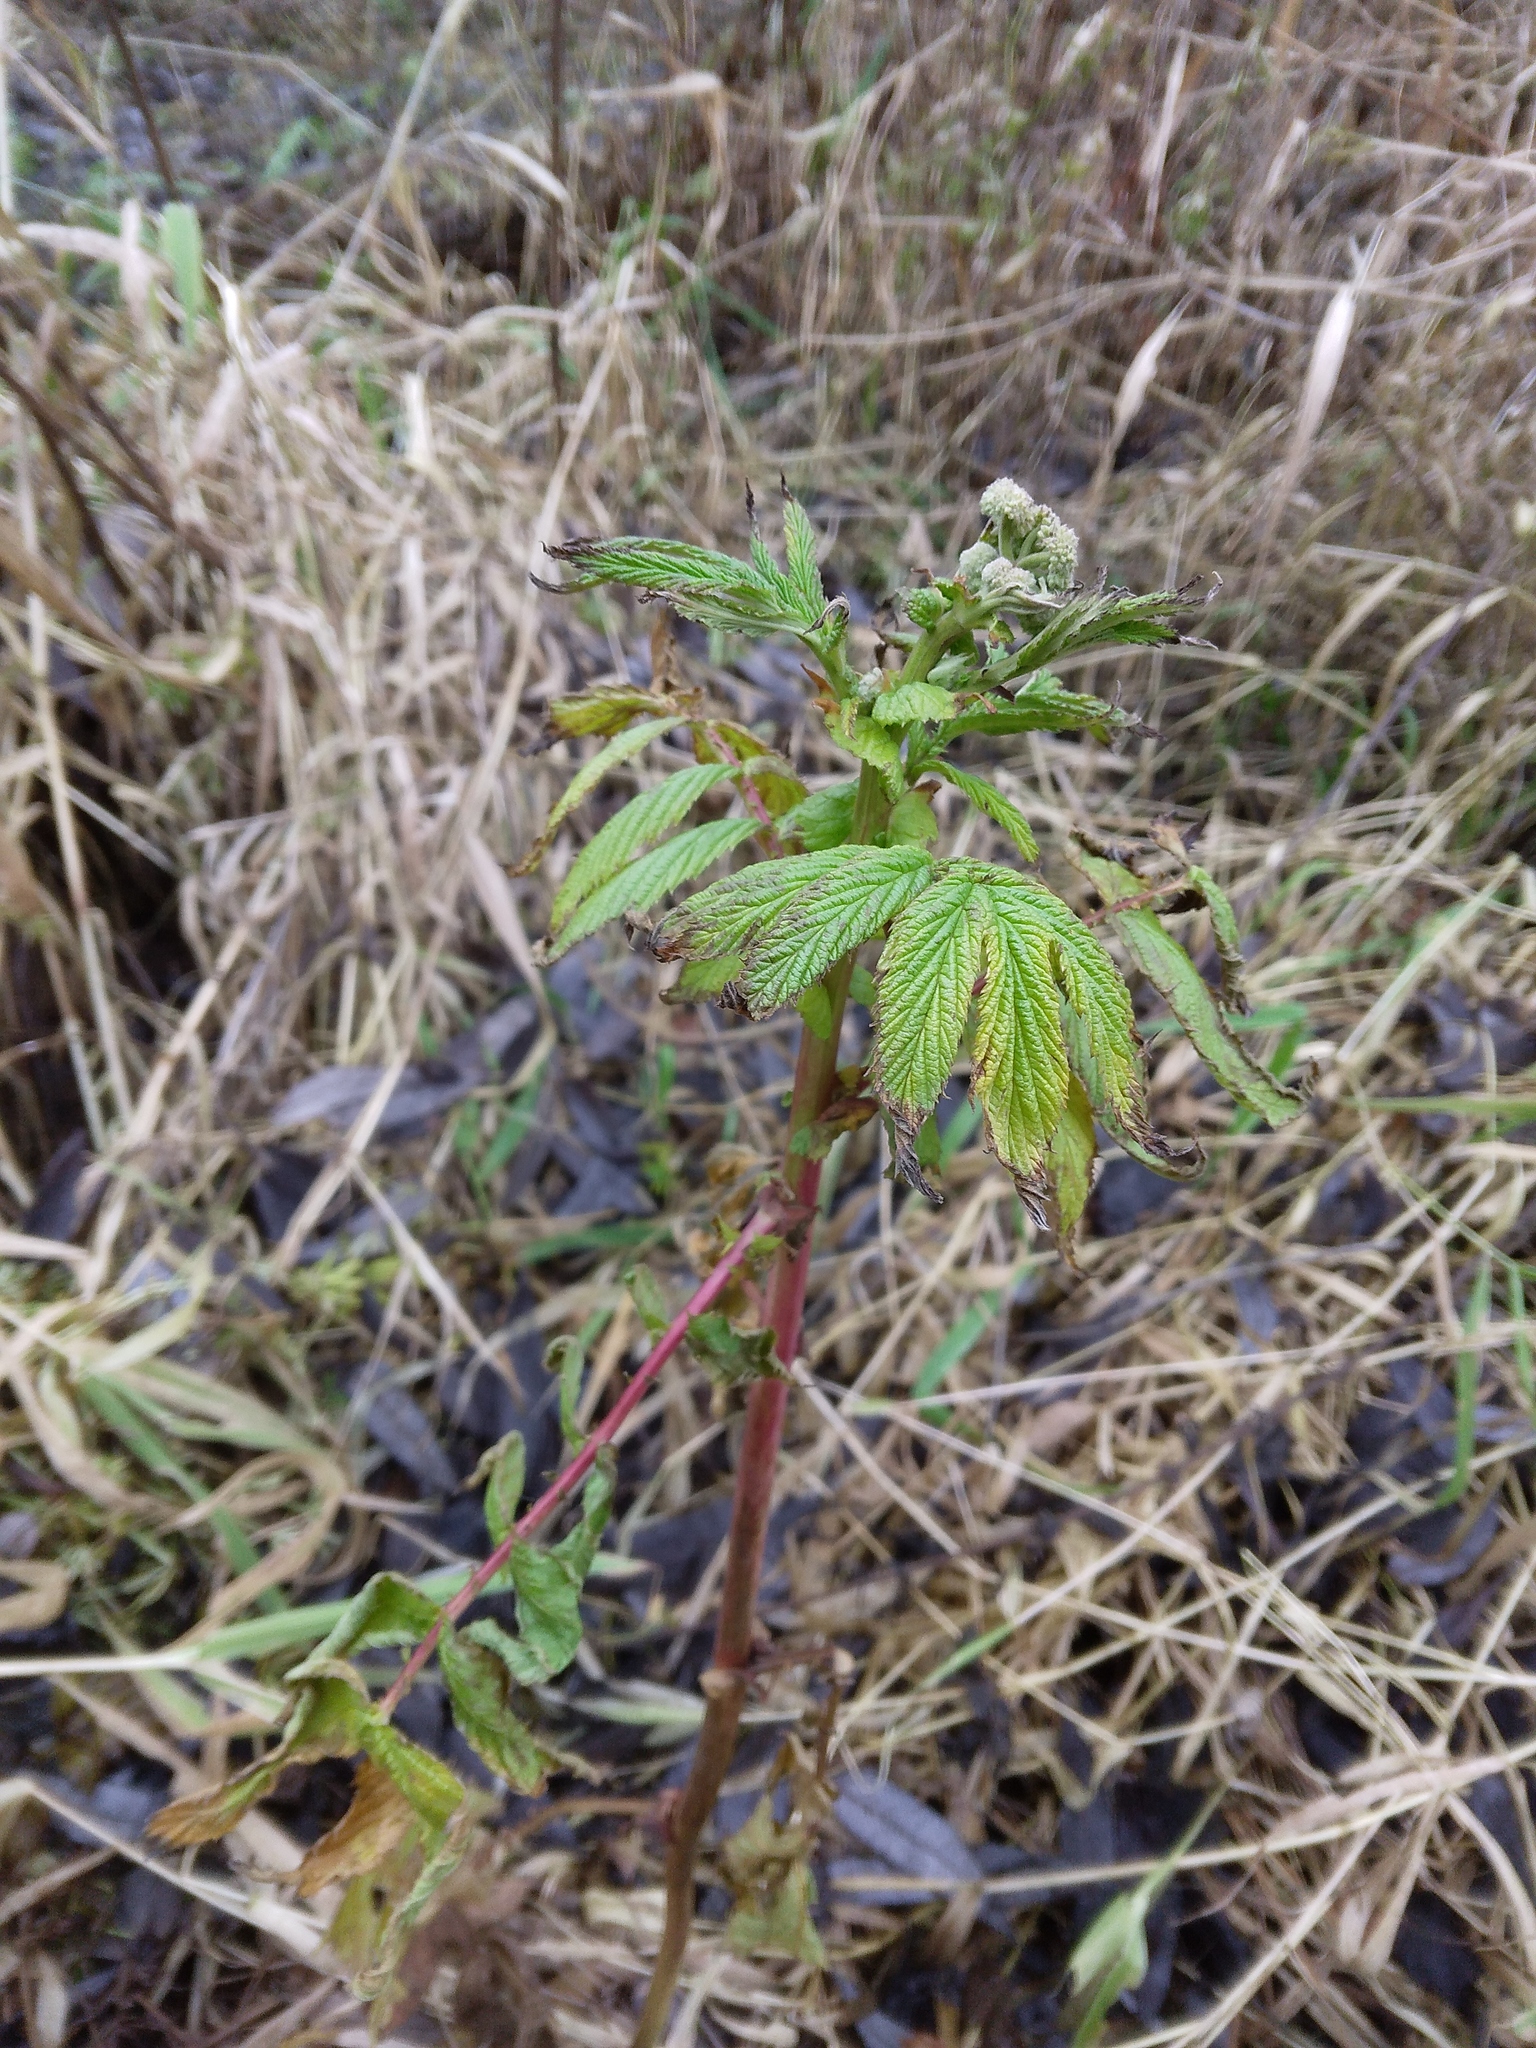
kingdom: Plantae
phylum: Tracheophyta
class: Magnoliopsida
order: Rosales
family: Rosaceae
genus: Filipendula
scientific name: Filipendula ulmaria
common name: Meadowsweet
